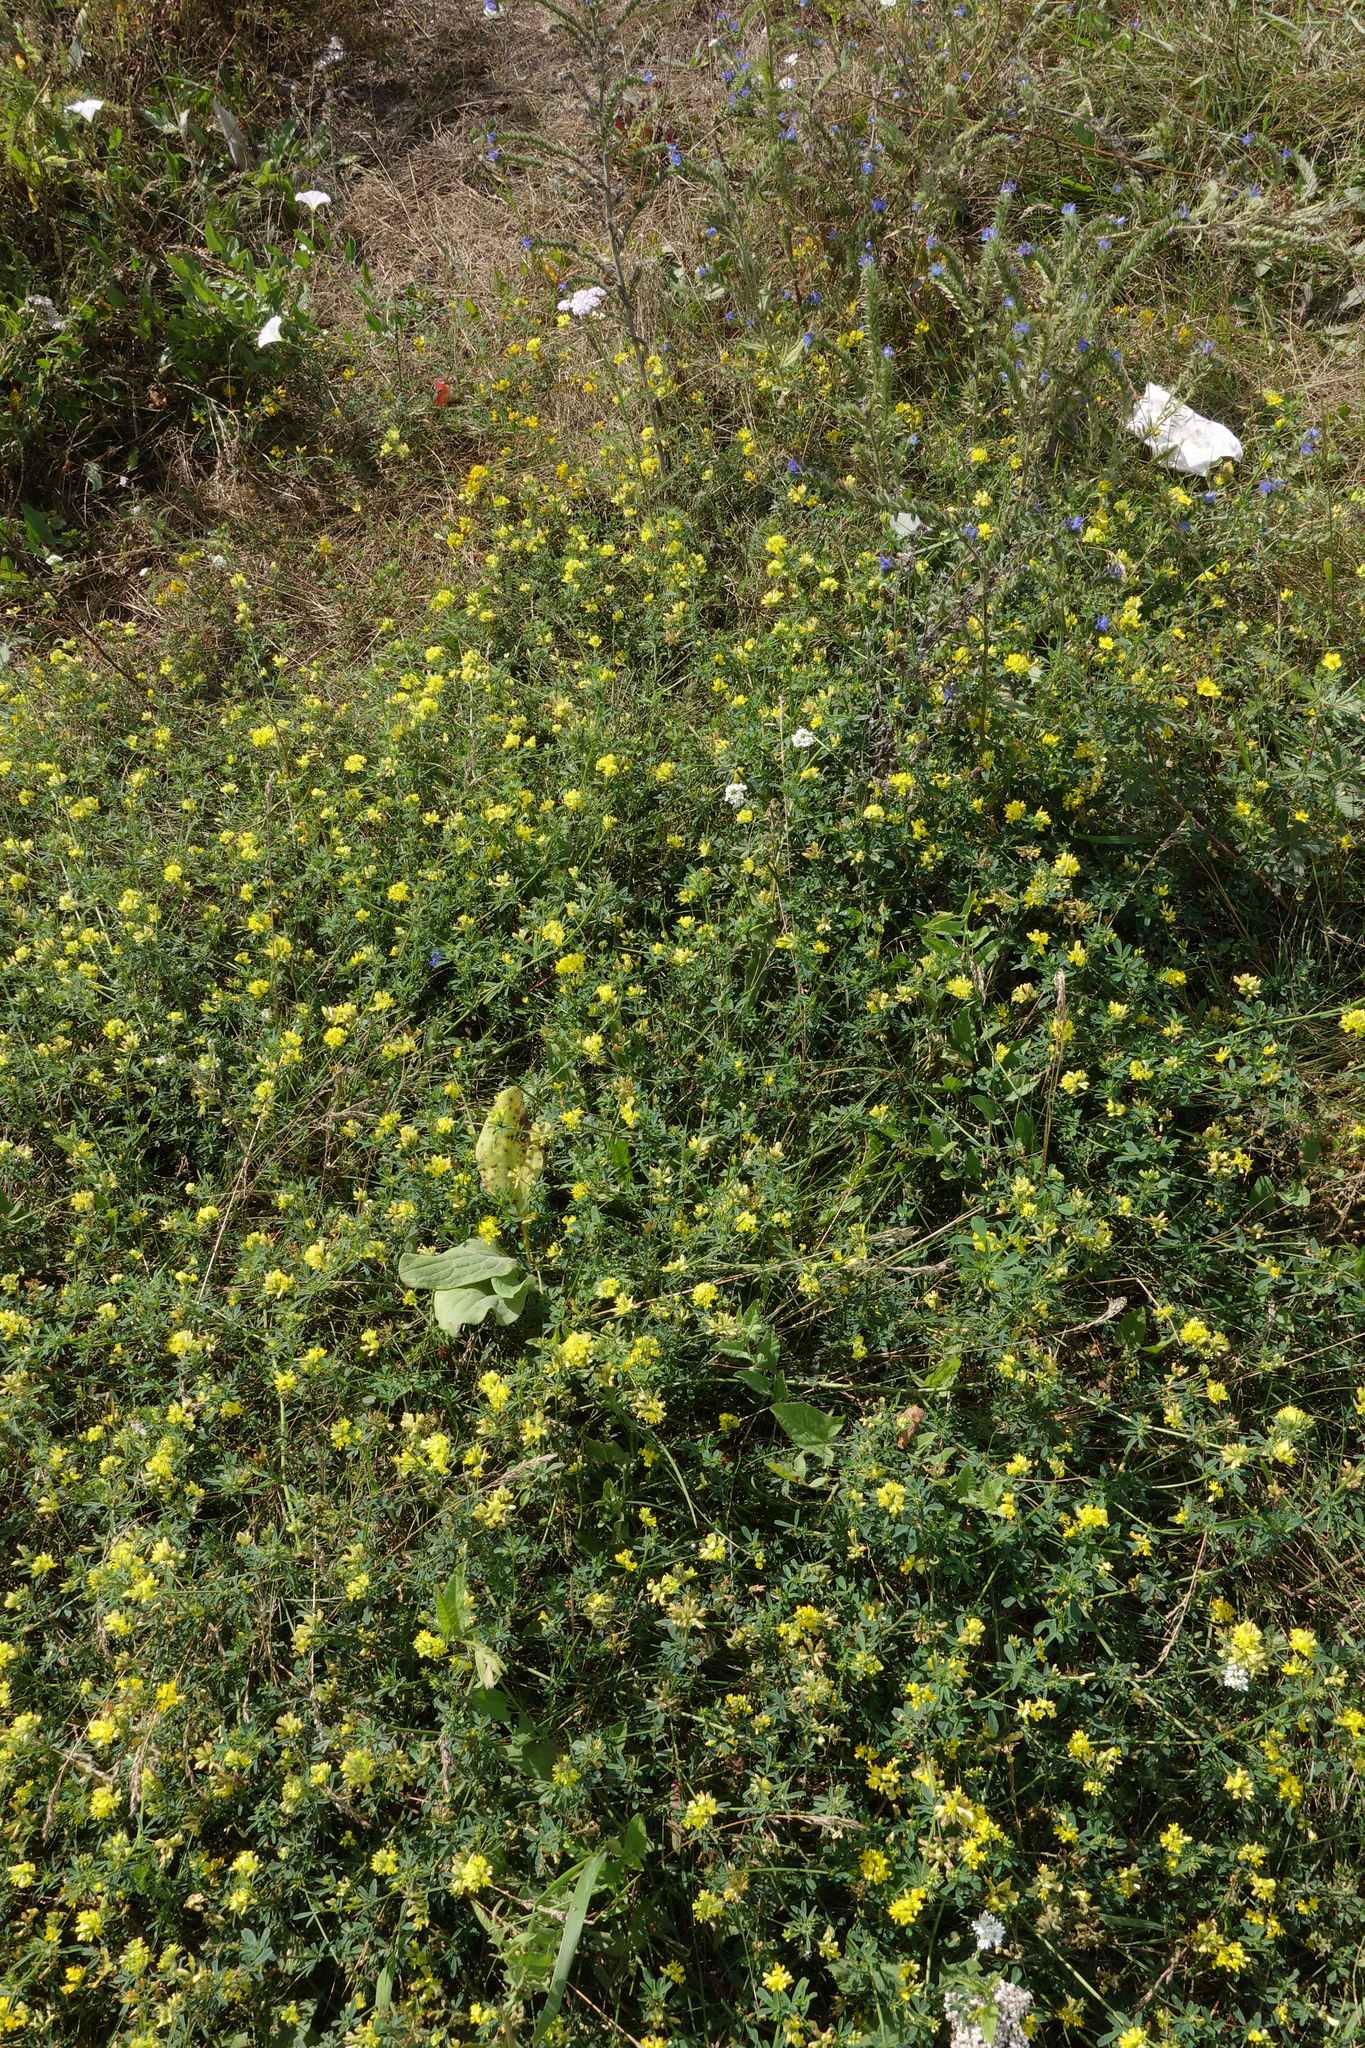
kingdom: Plantae
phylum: Tracheophyta
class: Magnoliopsida
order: Fabales
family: Fabaceae
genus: Medicago
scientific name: Medicago falcata
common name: Sickle medick
